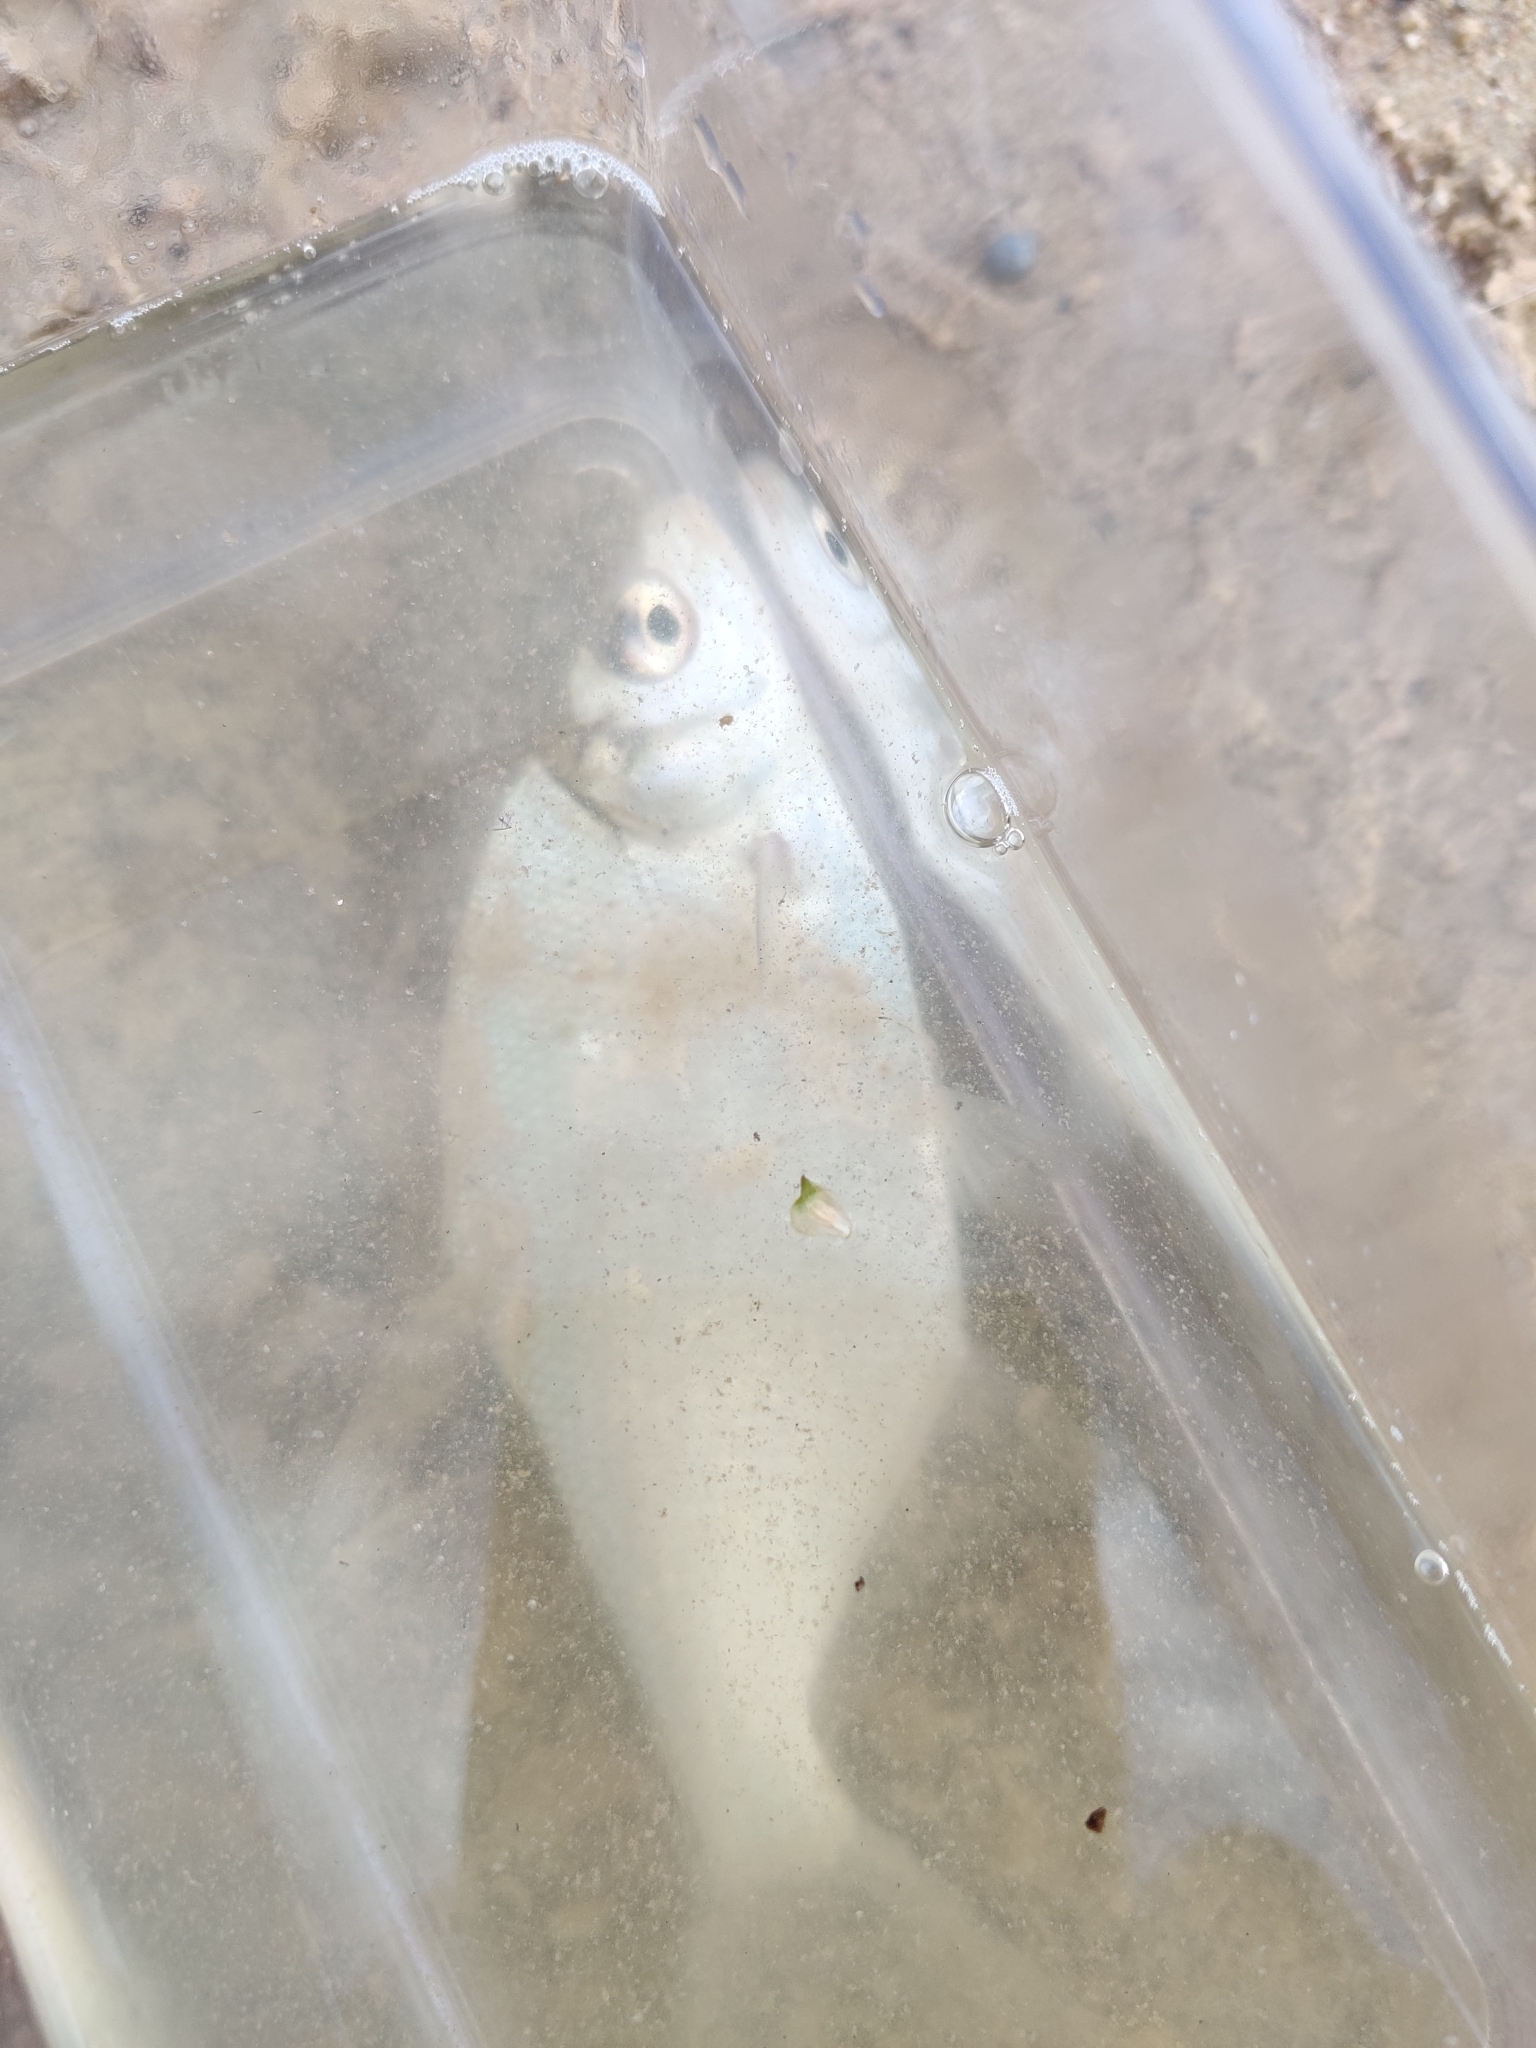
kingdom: Animalia
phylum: Chordata
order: Cypriniformes
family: Cyprinidae
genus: Abramis
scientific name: Abramis brama
